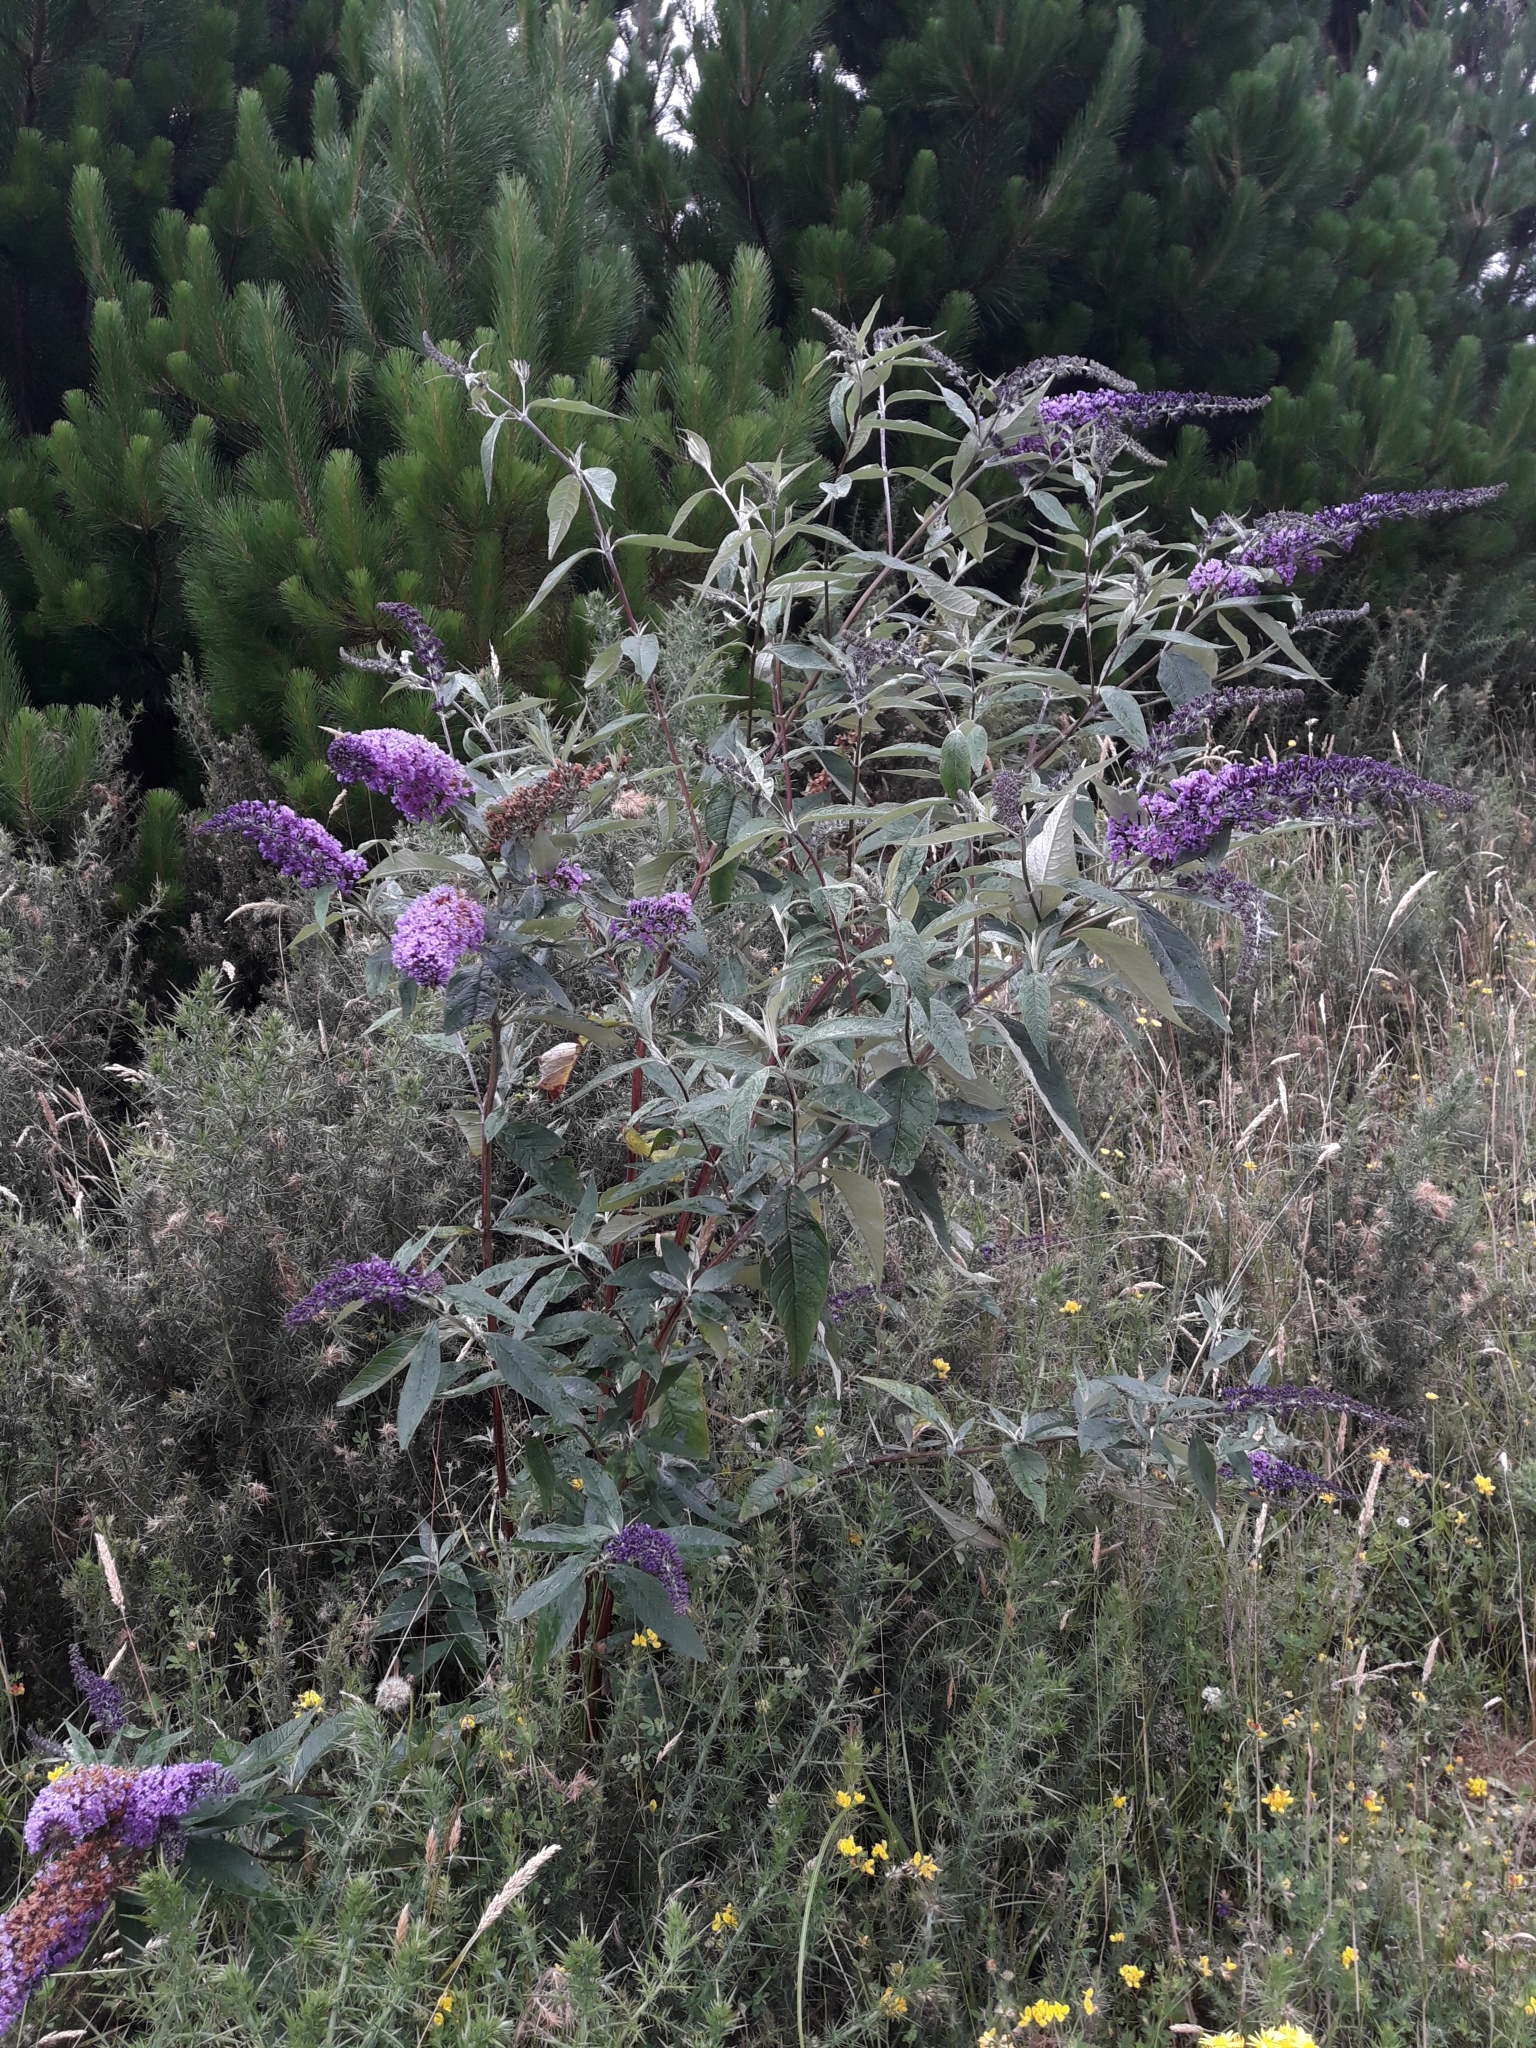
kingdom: Plantae
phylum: Tracheophyta
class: Magnoliopsida
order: Lamiales
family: Scrophulariaceae
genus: Buddleja
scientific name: Buddleja davidii
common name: Butterfly-bush
